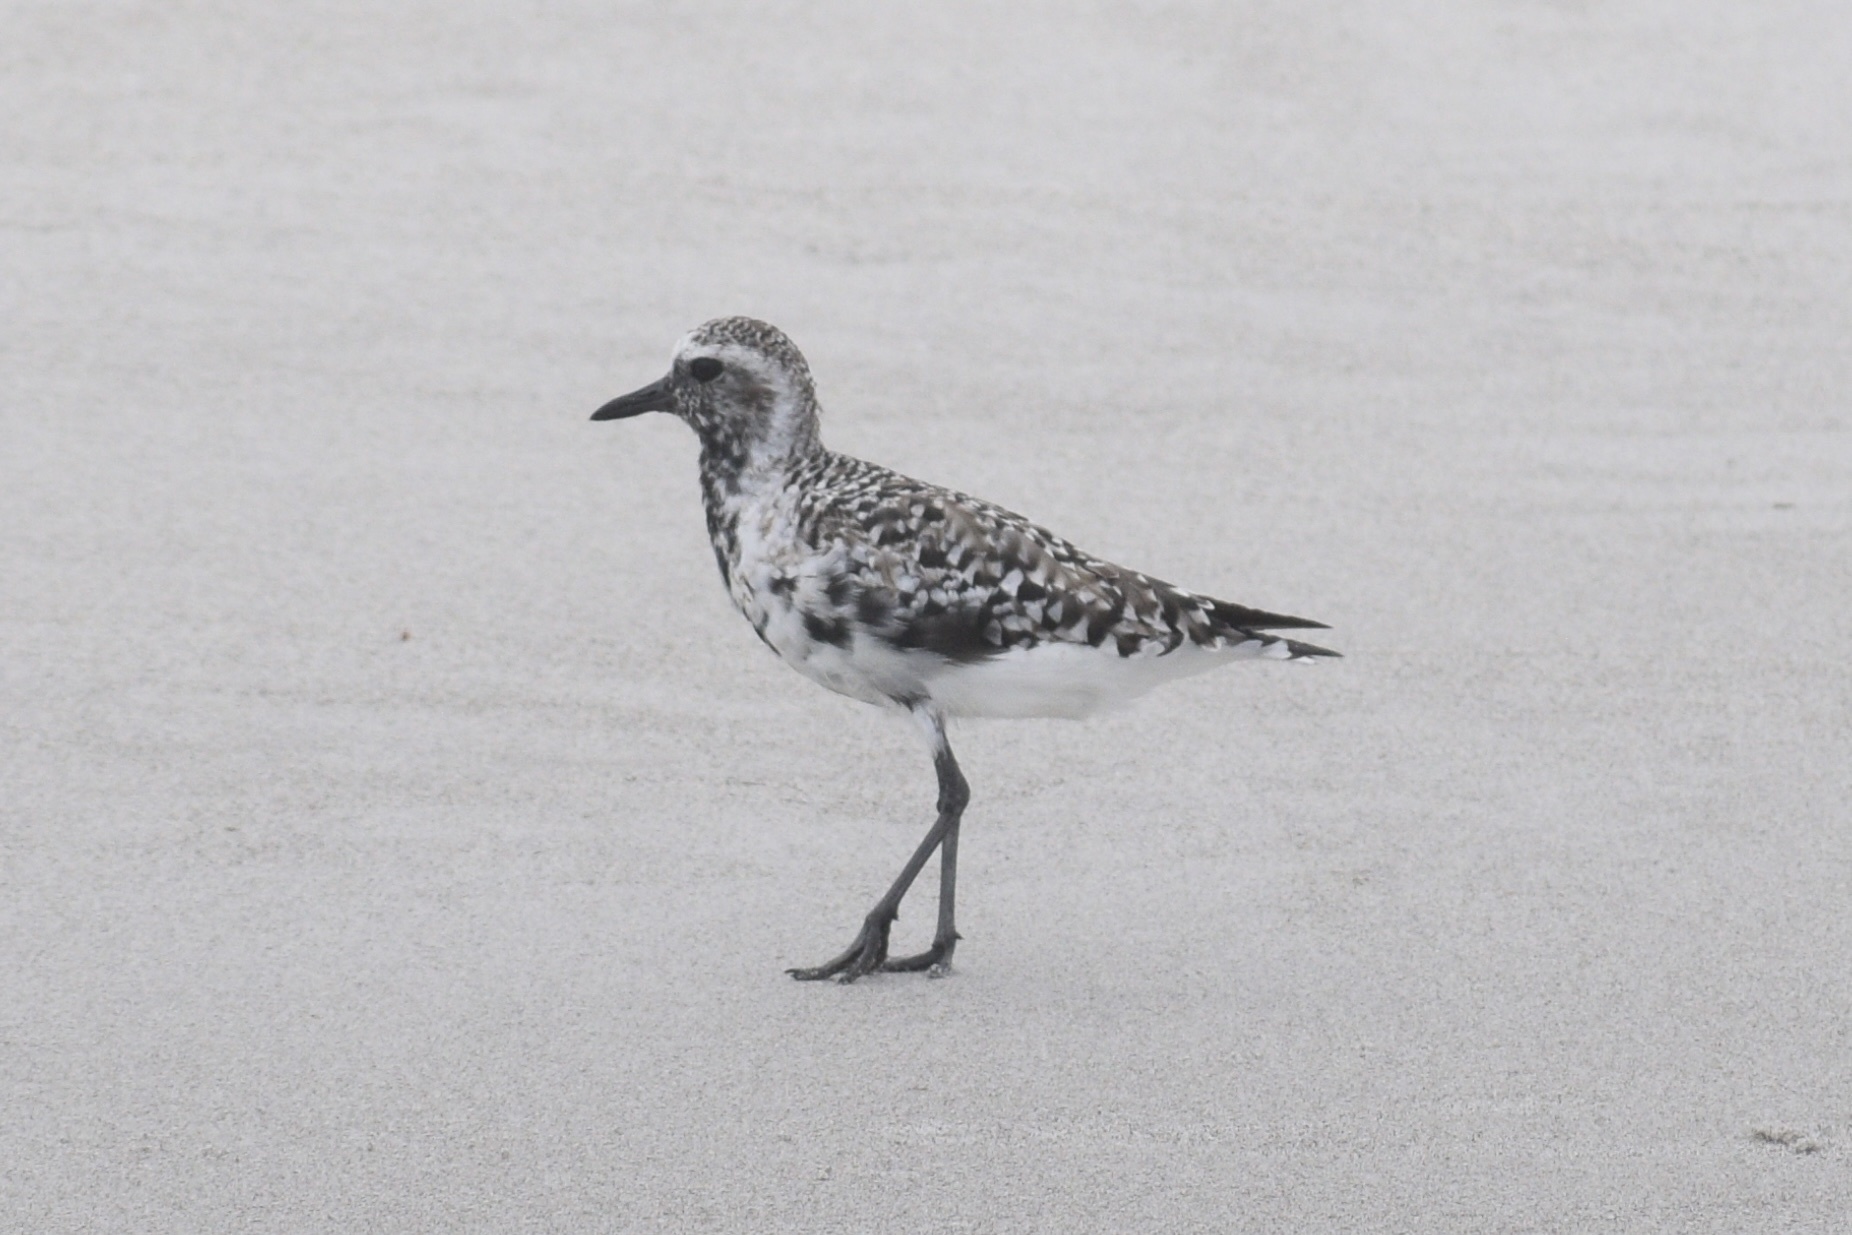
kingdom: Animalia
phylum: Chordata
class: Aves
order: Charadriiformes
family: Charadriidae
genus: Pluvialis
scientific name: Pluvialis squatarola
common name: Grey plover
